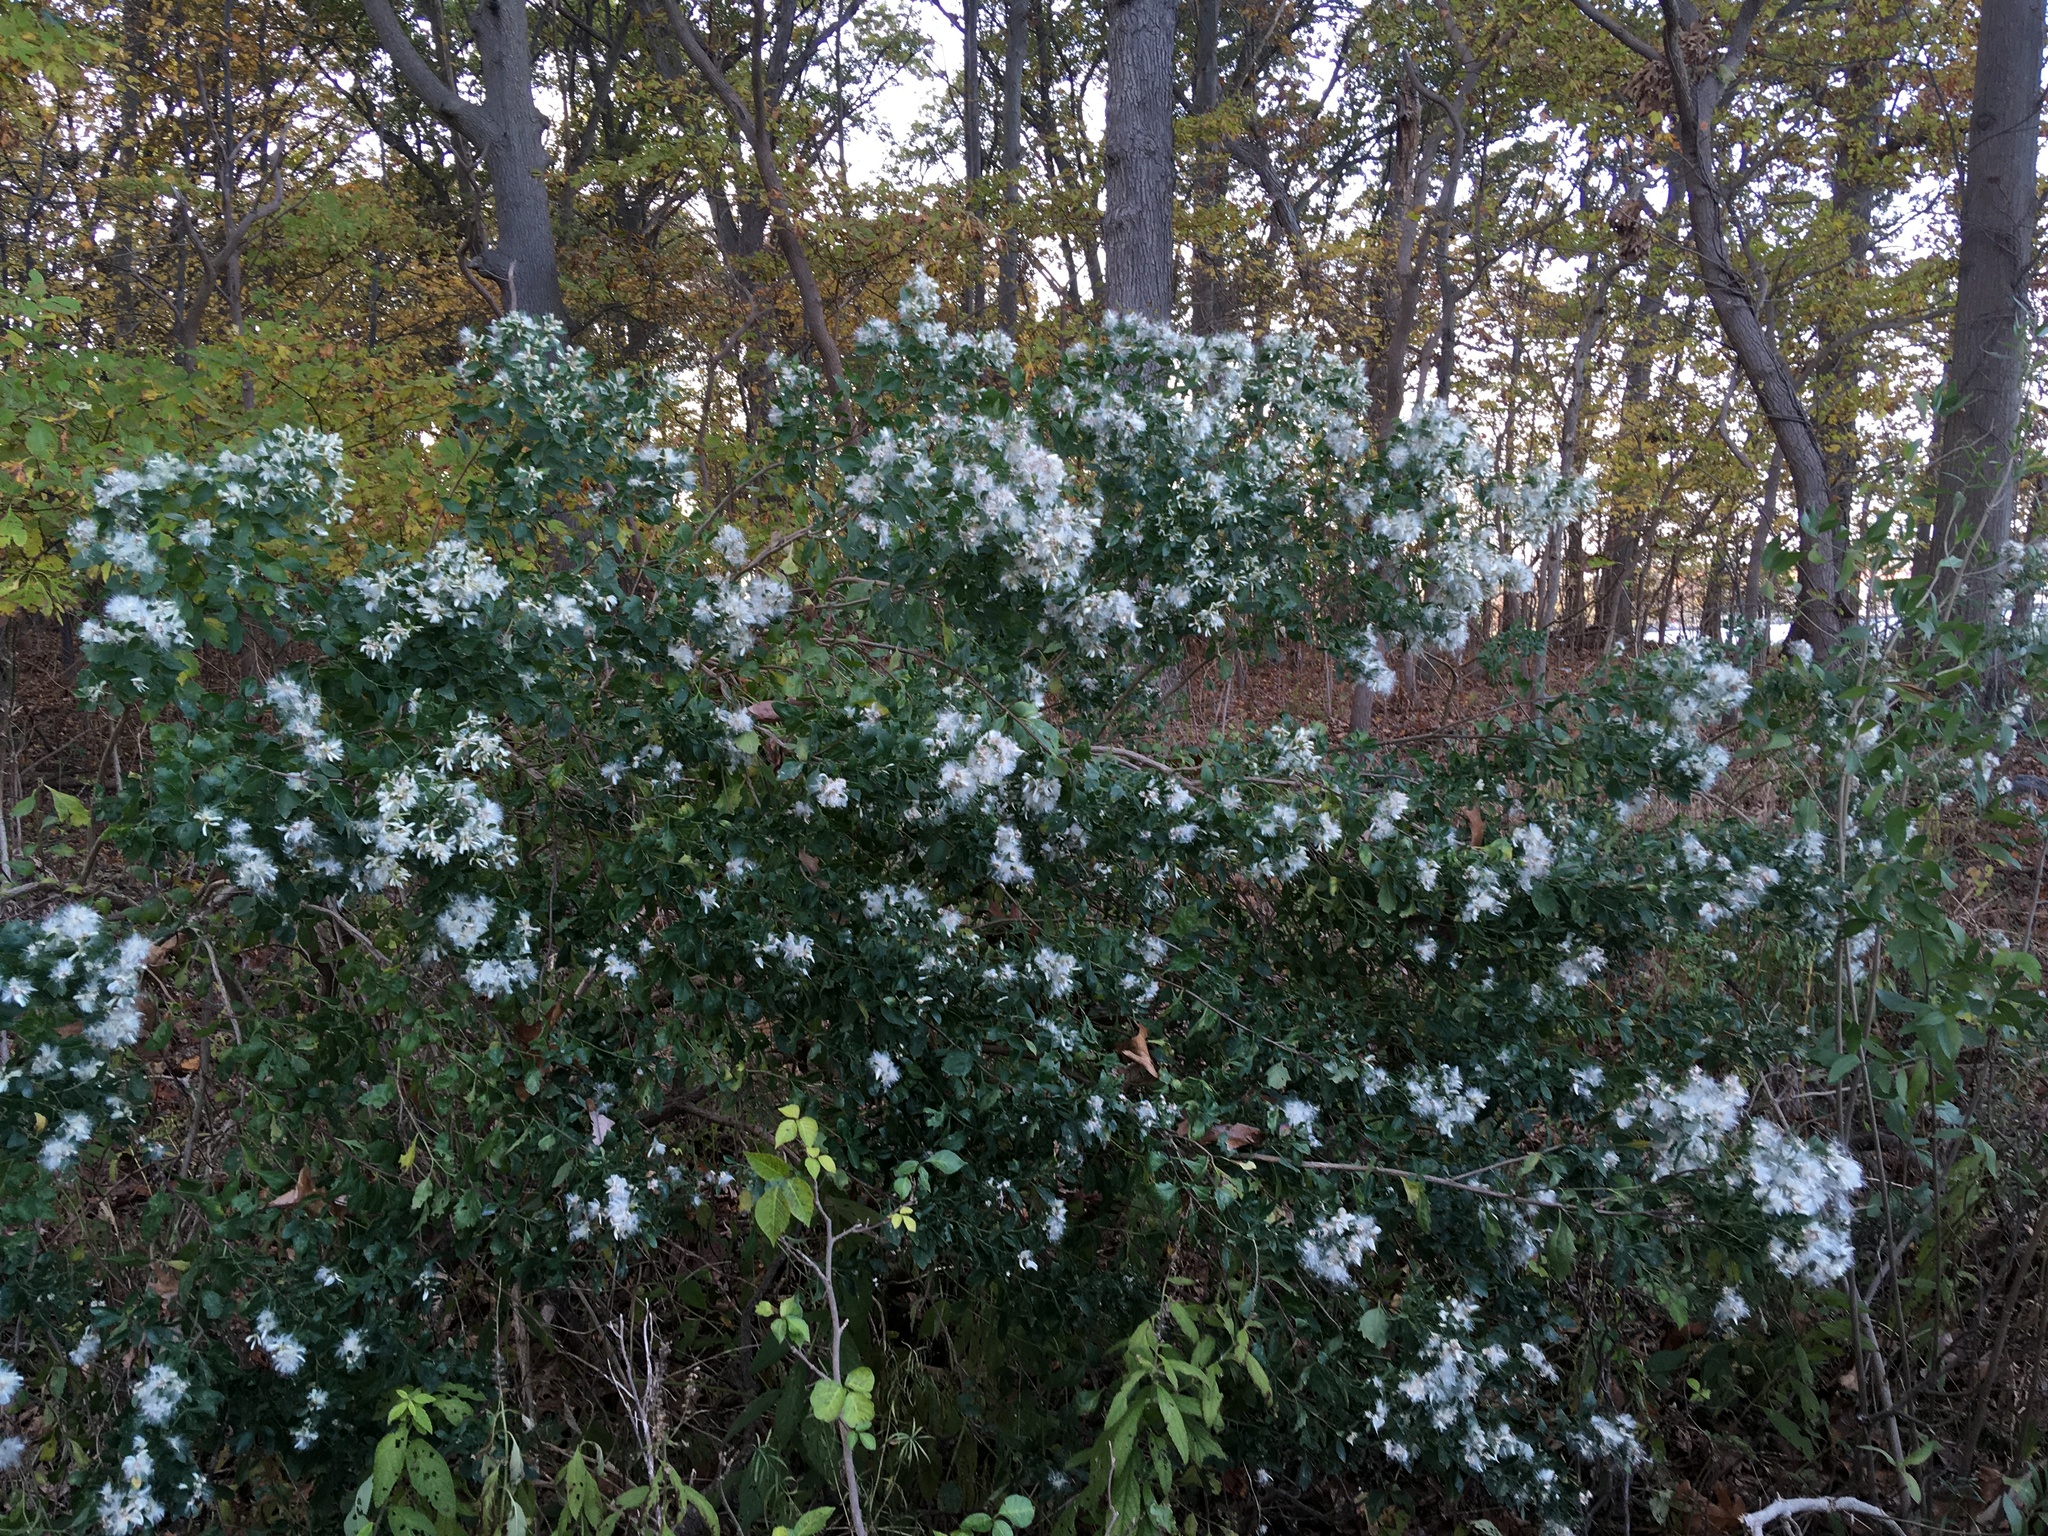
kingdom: Plantae
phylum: Tracheophyta
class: Magnoliopsida
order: Asterales
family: Asteraceae
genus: Baccharis
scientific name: Baccharis halimifolia
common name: Eastern baccharis
